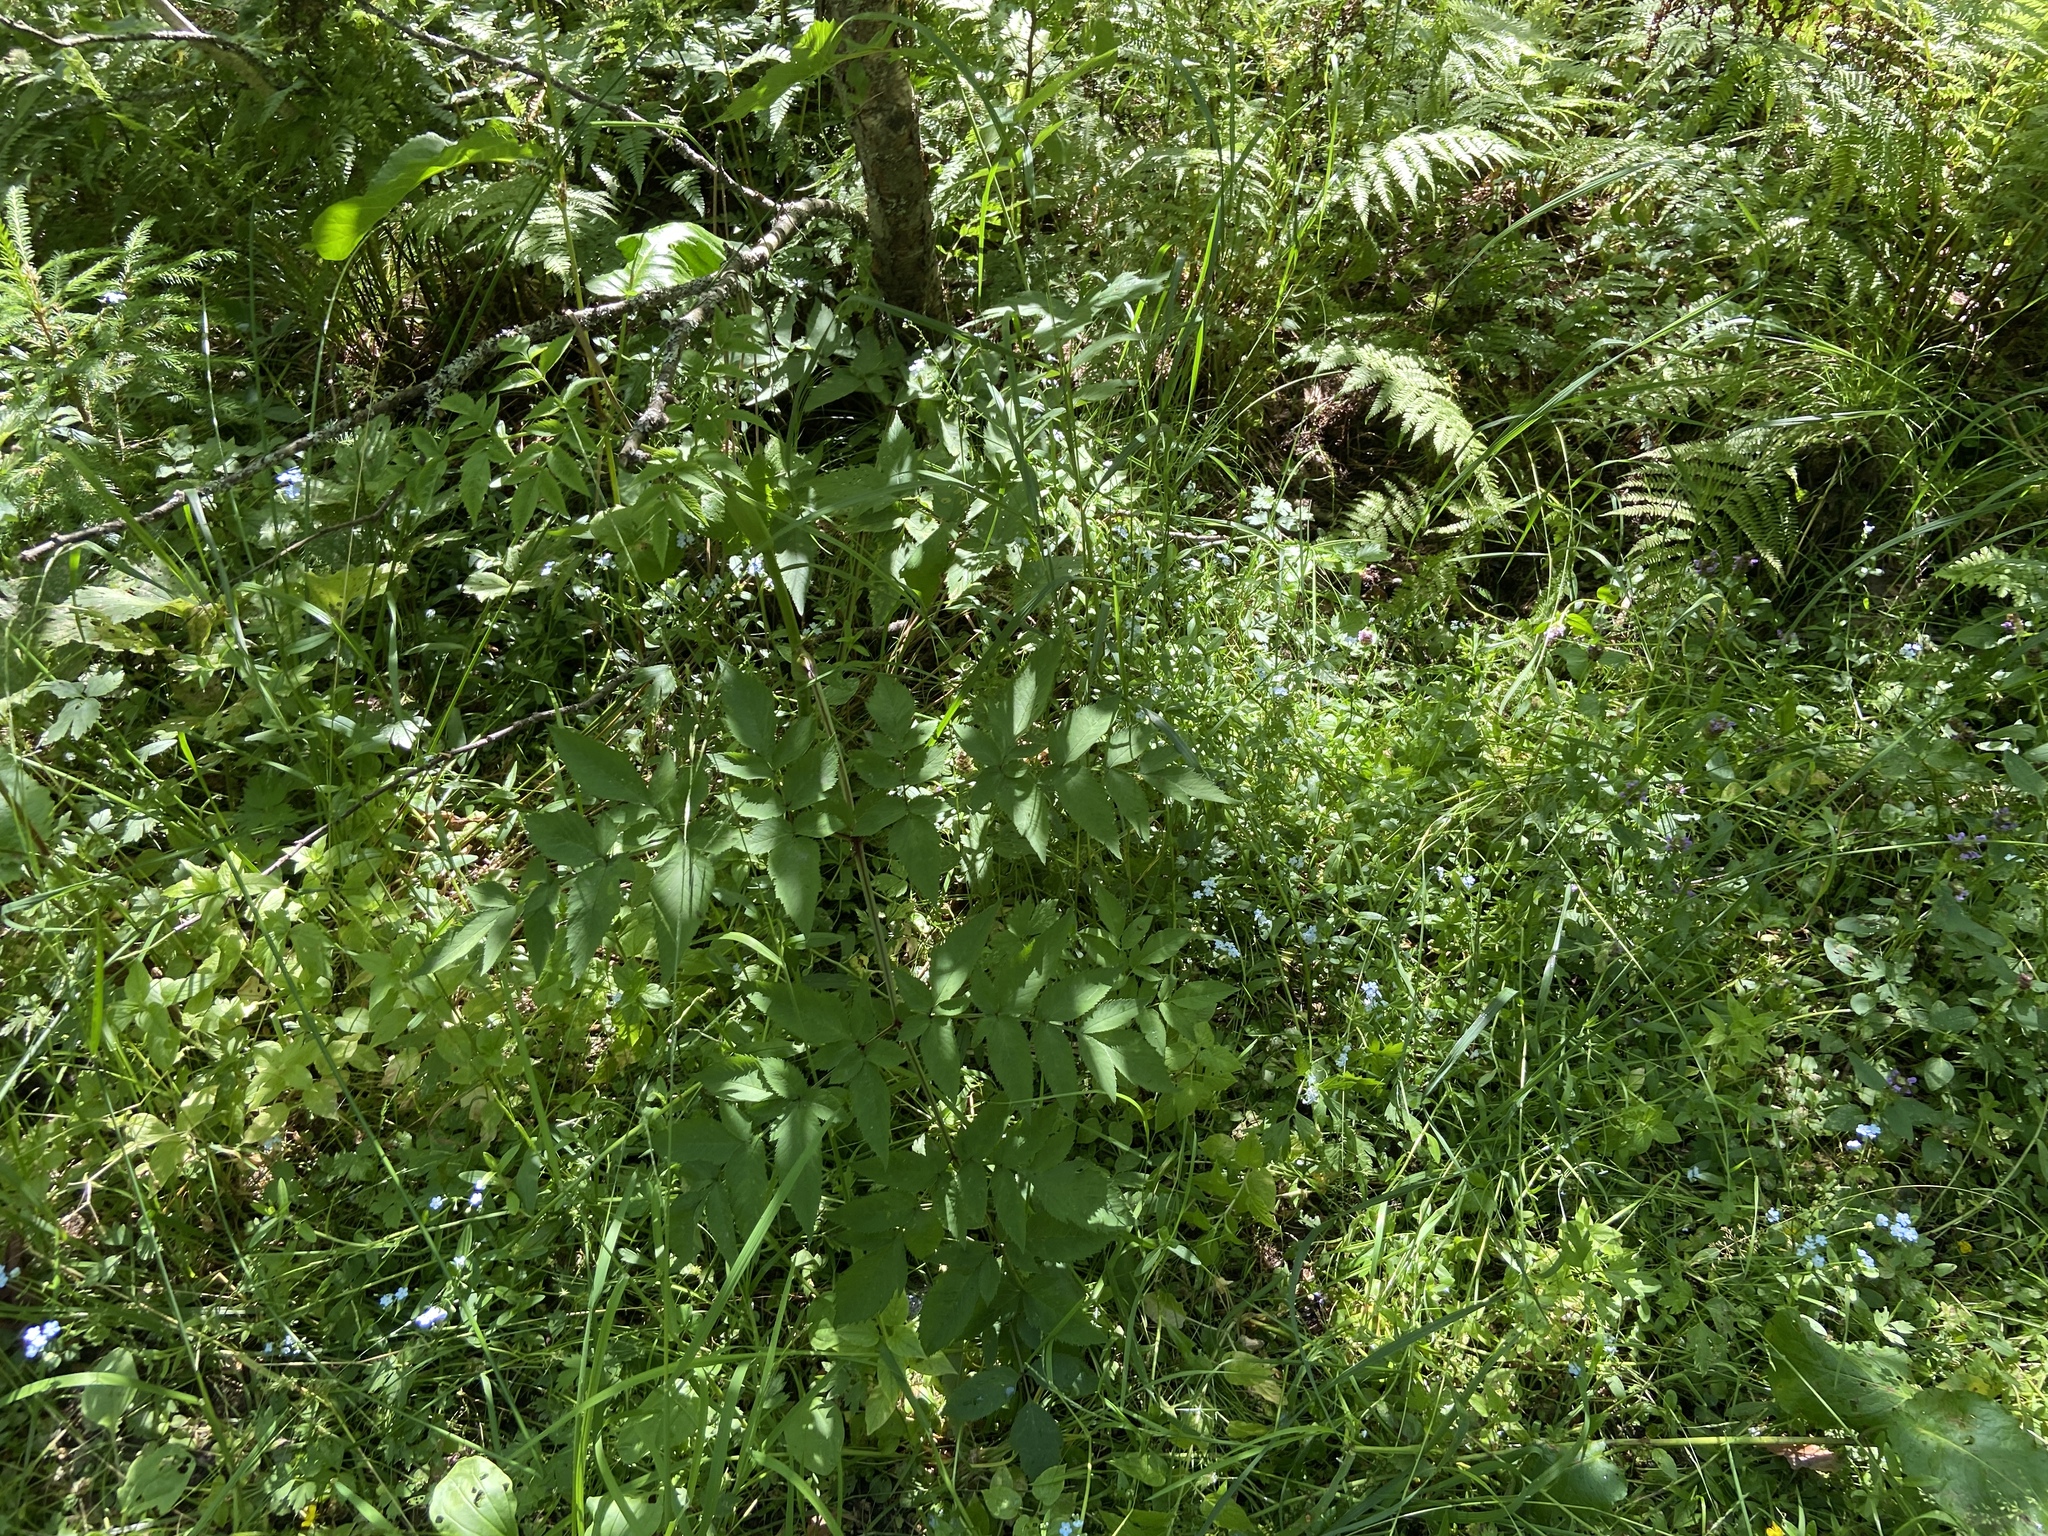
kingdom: Plantae
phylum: Tracheophyta
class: Magnoliopsida
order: Apiales
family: Apiaceae
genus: Angelica
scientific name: Angelica sylvestris
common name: Wild angelica
